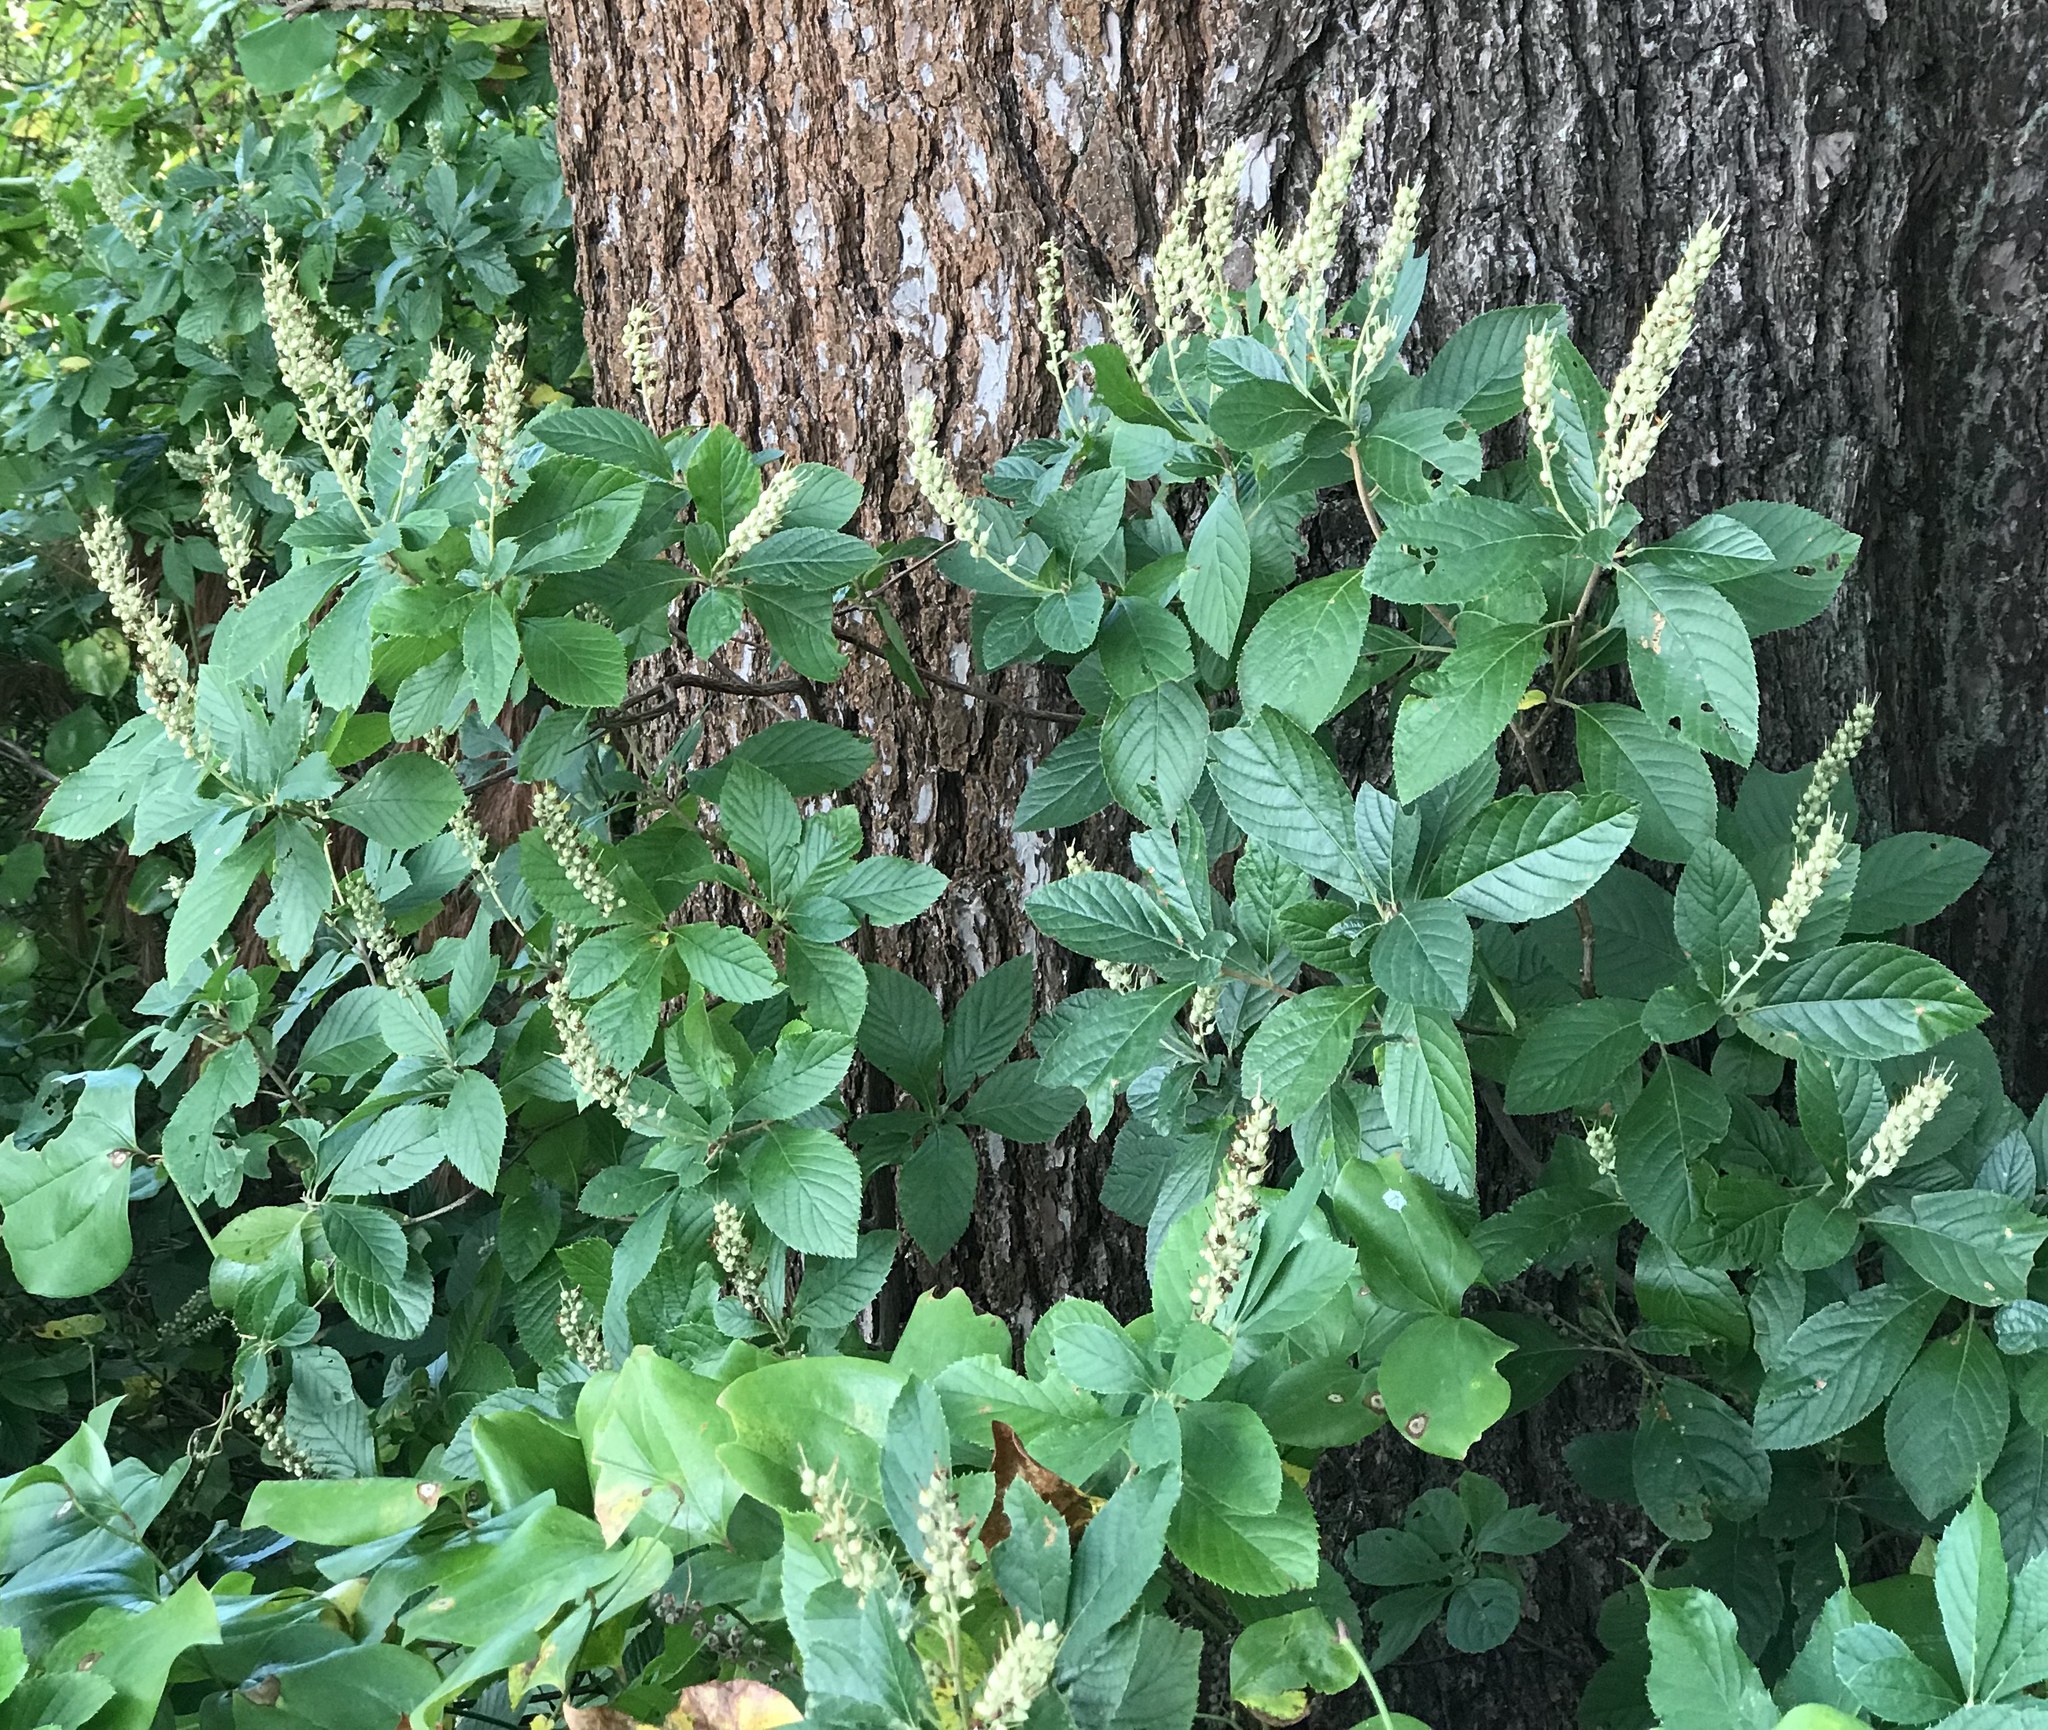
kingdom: Plantae
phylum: Tracheophyta
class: Magnoliopsida
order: Ericales
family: Clethraceae
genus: Clethra
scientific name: Clethra alnifolia
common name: Sweet pepperbush
